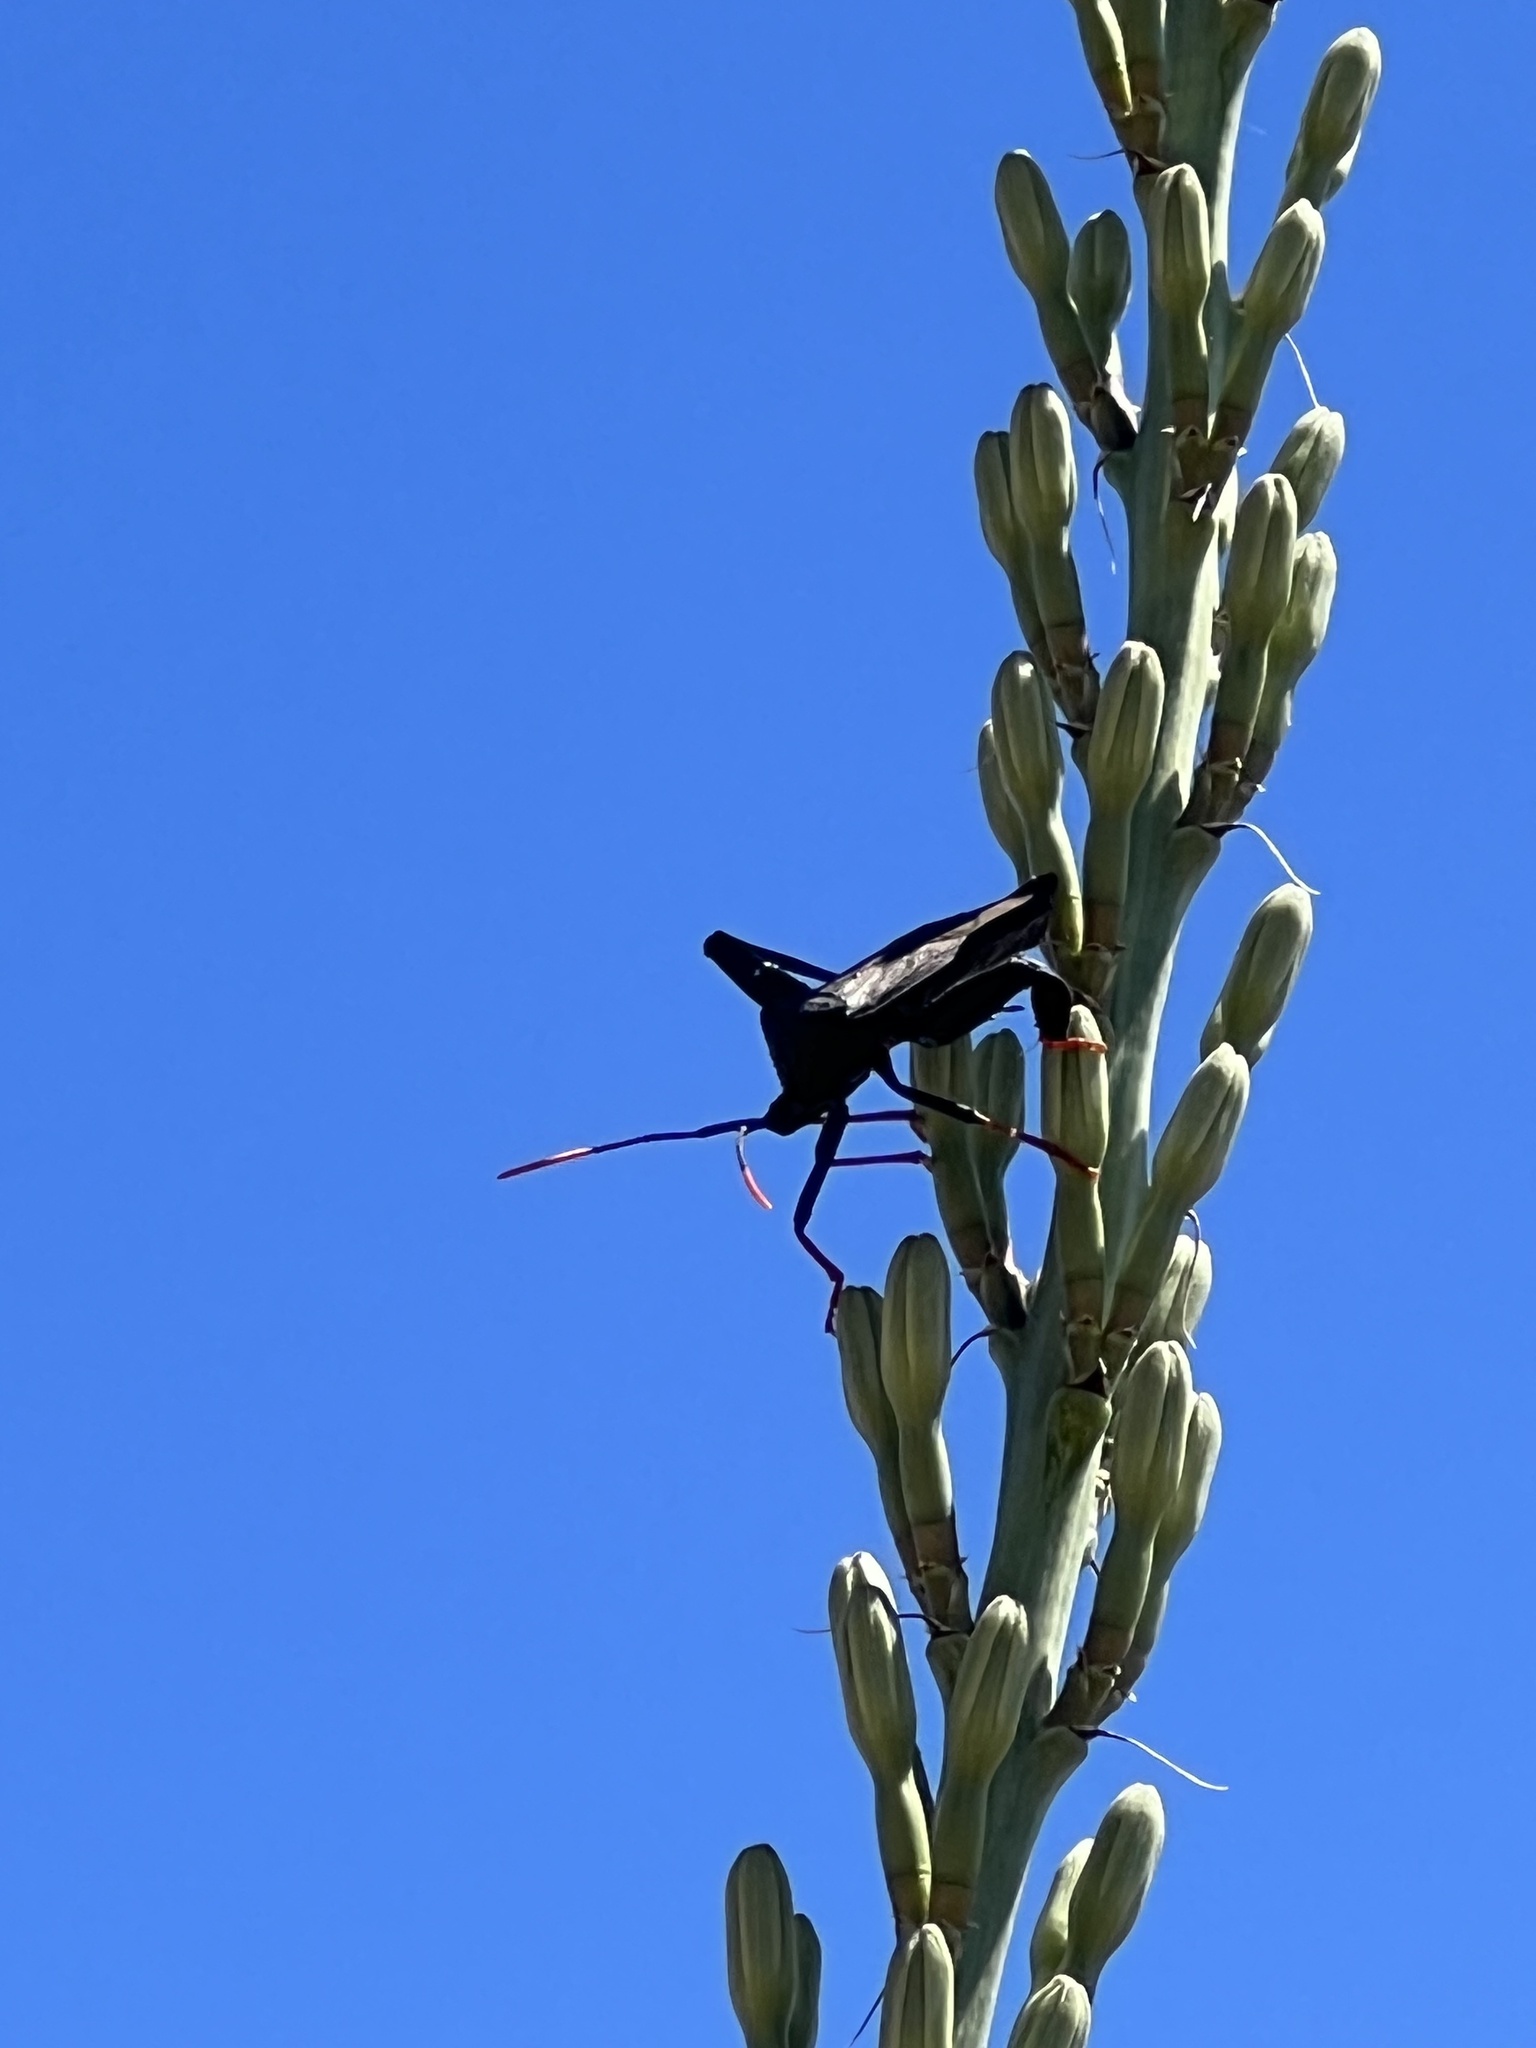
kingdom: Animalia
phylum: Arthropoda
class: Insecta
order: Hemiptera
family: Coreidae
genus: Acanthocephala
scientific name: Acanthocephala thomasi
